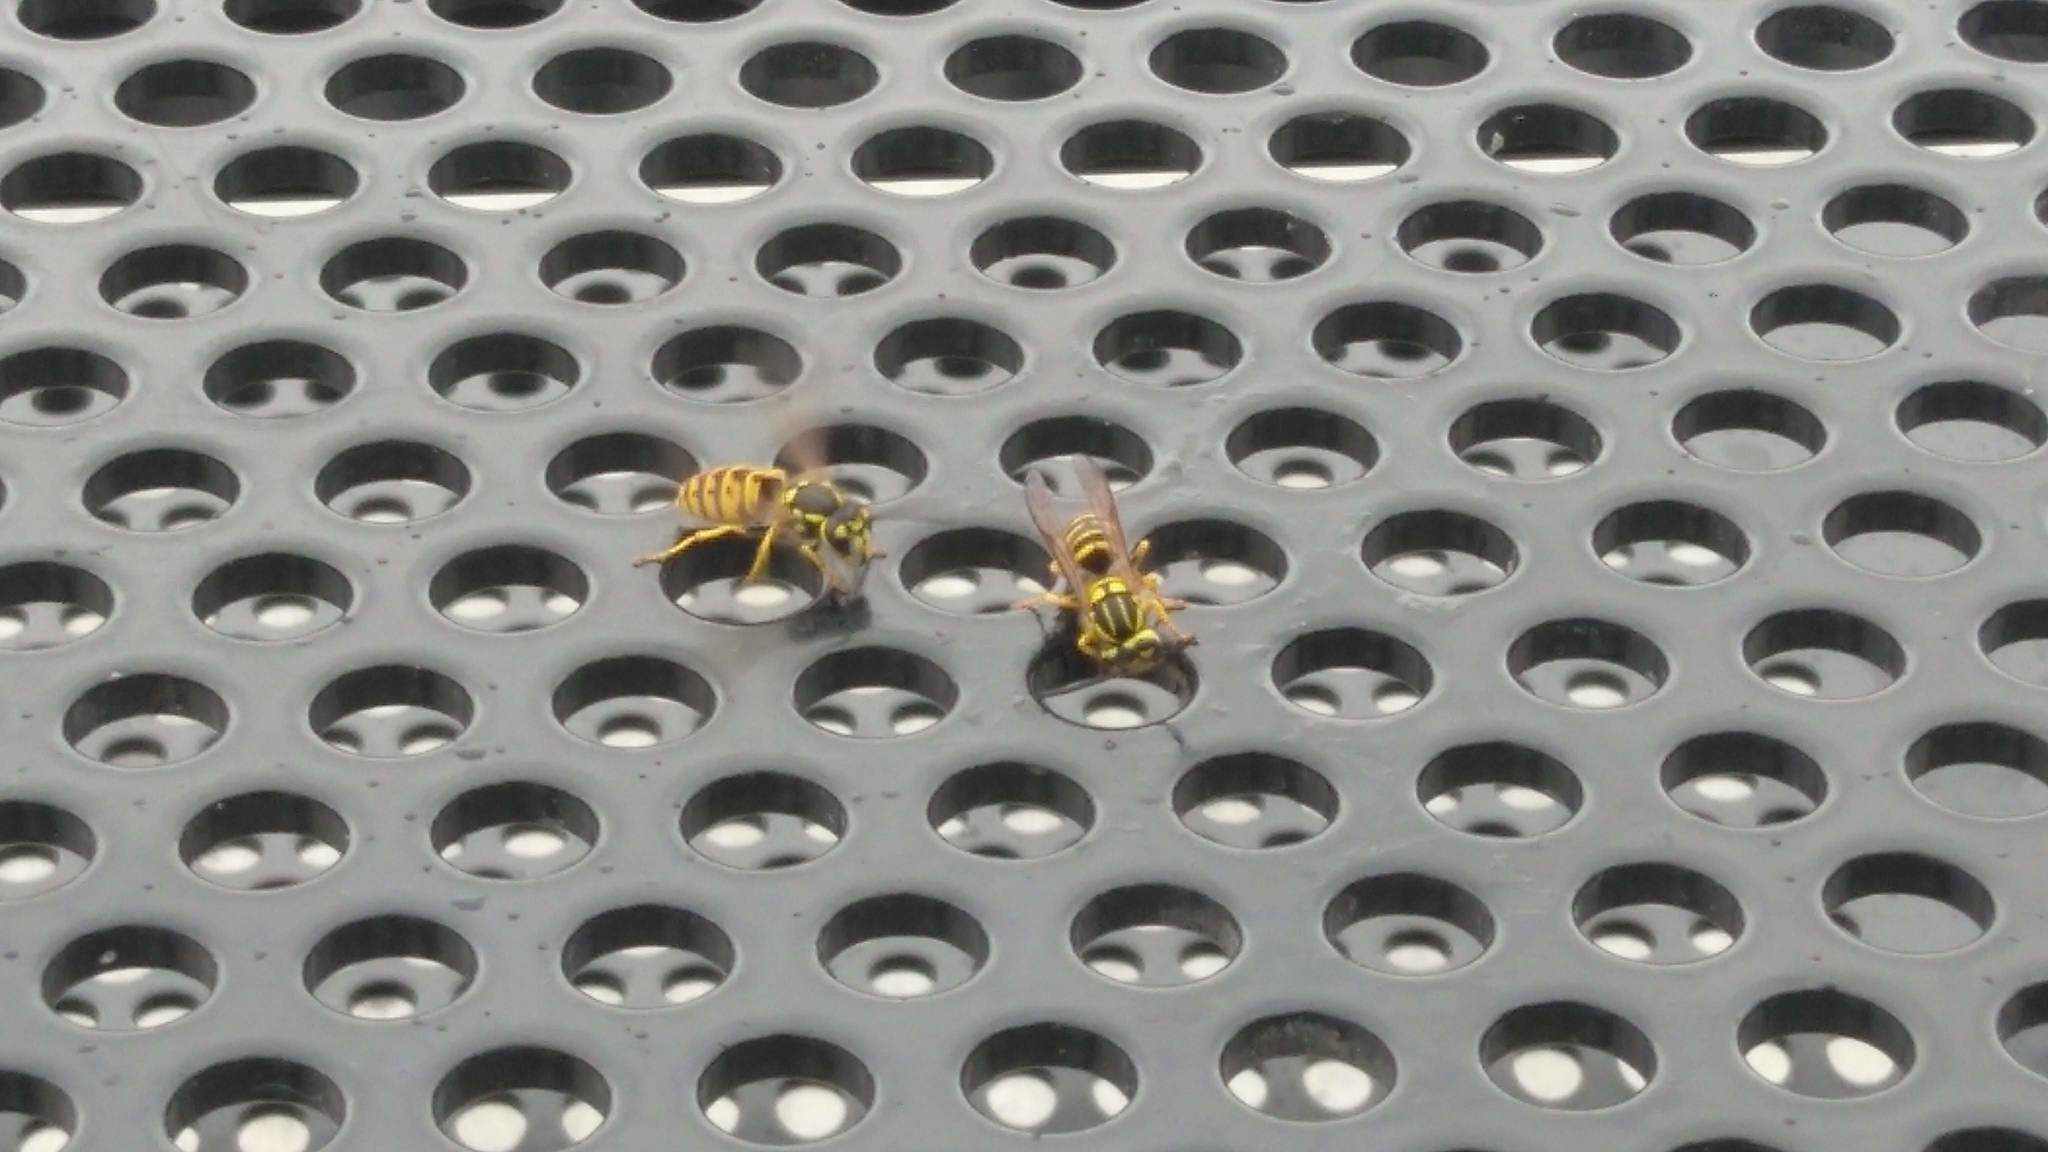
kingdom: Animalia
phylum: Arthropoda
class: Insecta
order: Hymenoptera
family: Vespidae
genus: Vespula
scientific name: Vespula germanica
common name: German wasp
